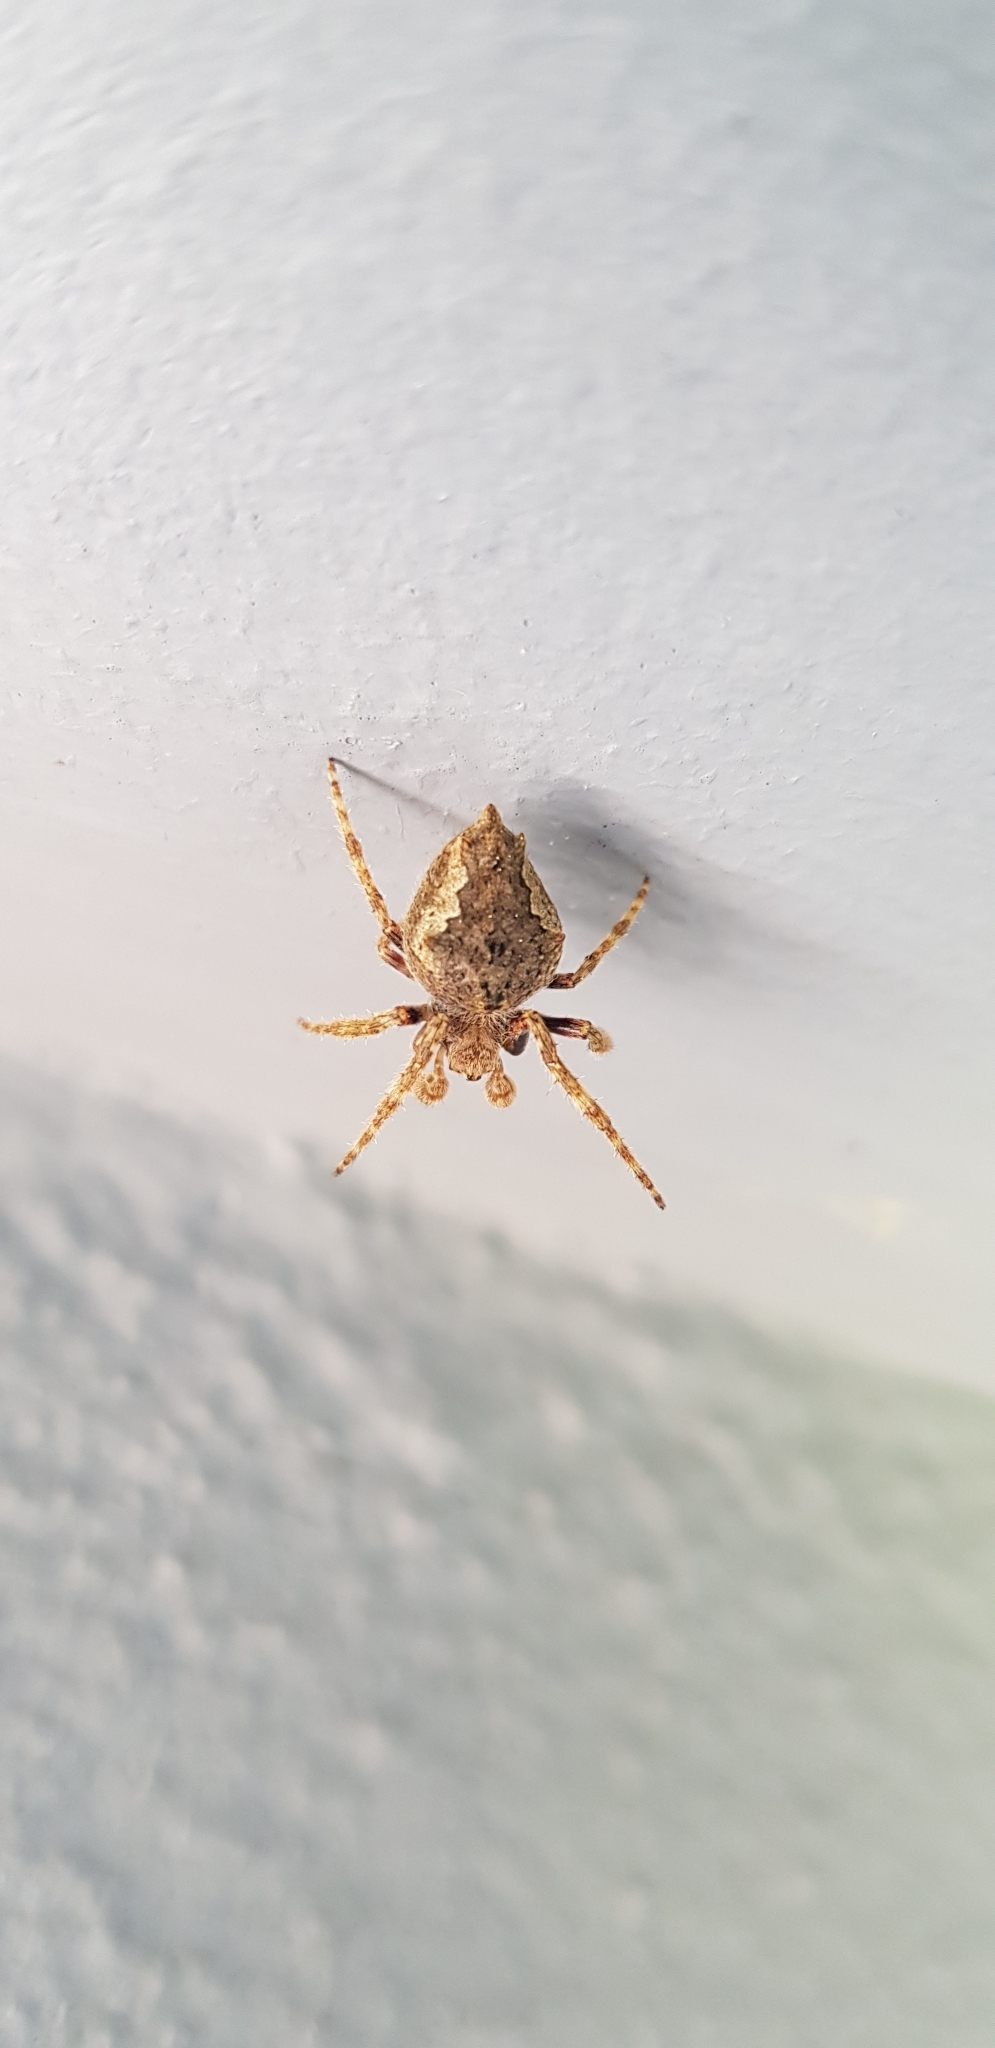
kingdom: Animalia
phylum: Arthropoda
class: Arachnida
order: Araneae
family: Araneidae
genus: Eriophora
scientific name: Eriophora pustulosa
